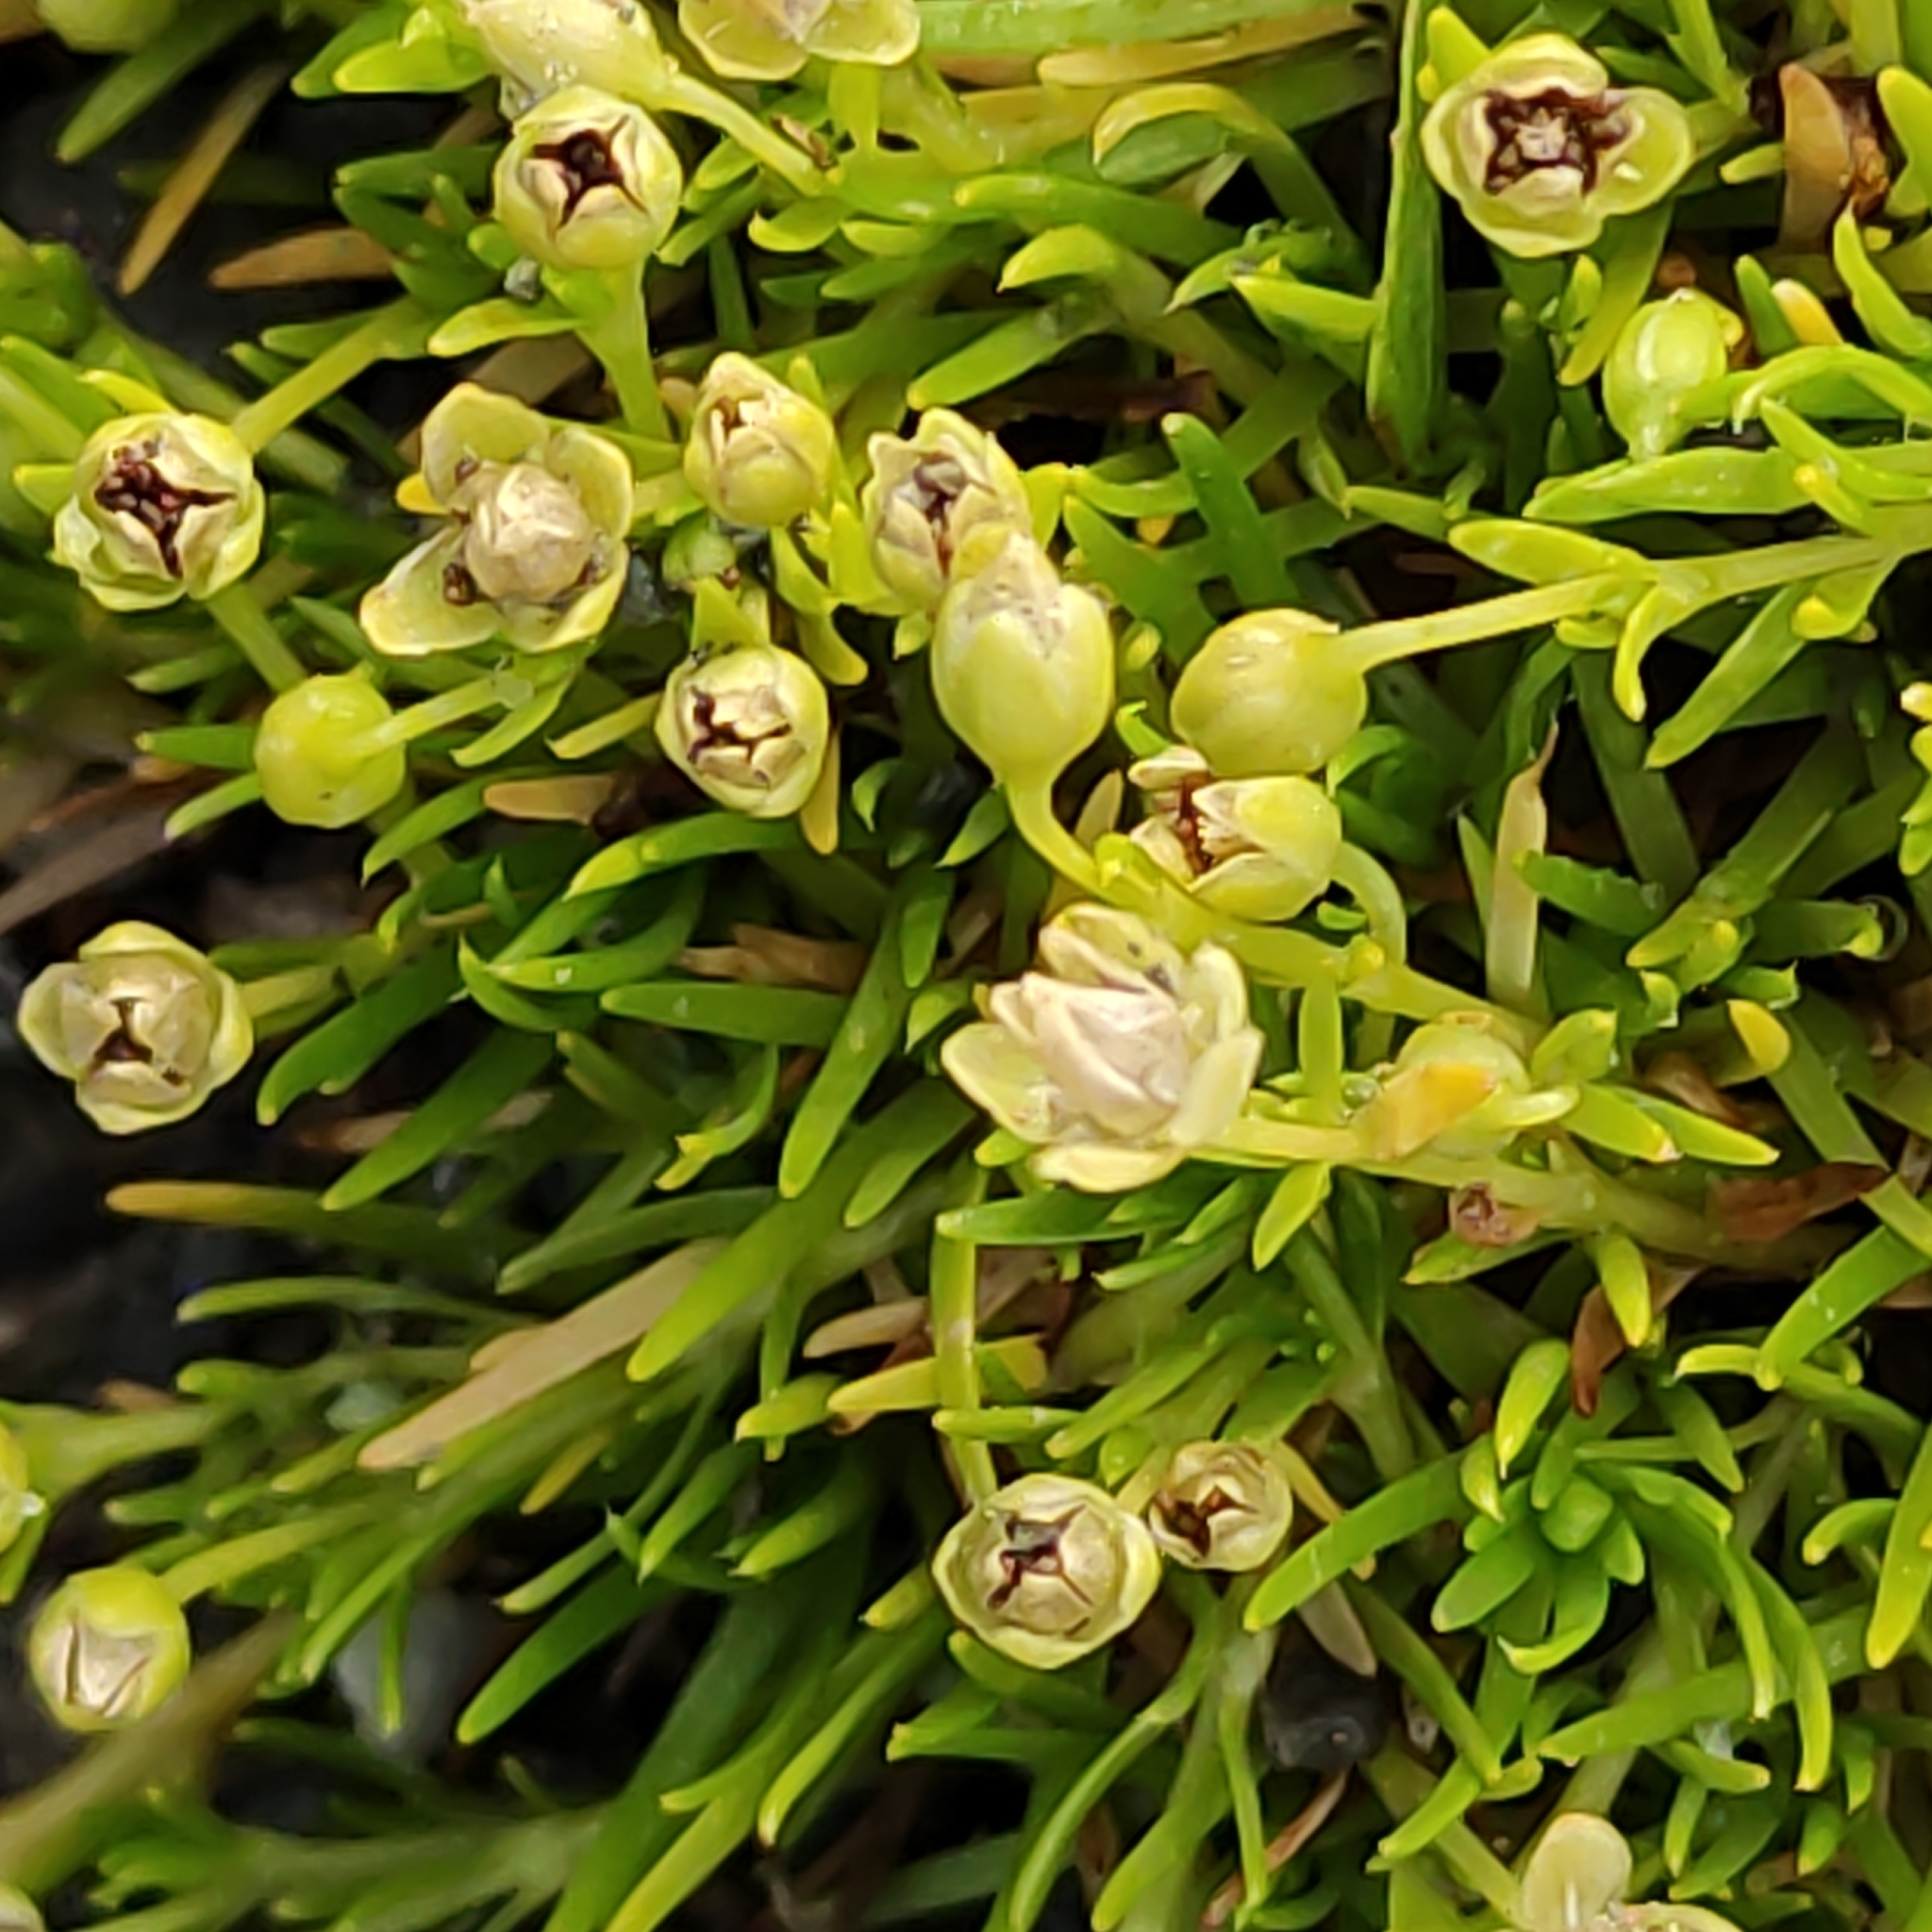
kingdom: Plantae
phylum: Tracheophyta
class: Magnoliopsida
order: Caryophyllales
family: Caryophyllaceae
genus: Sagina
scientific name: Sagina procumbens
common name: Procumbent pearlwort
